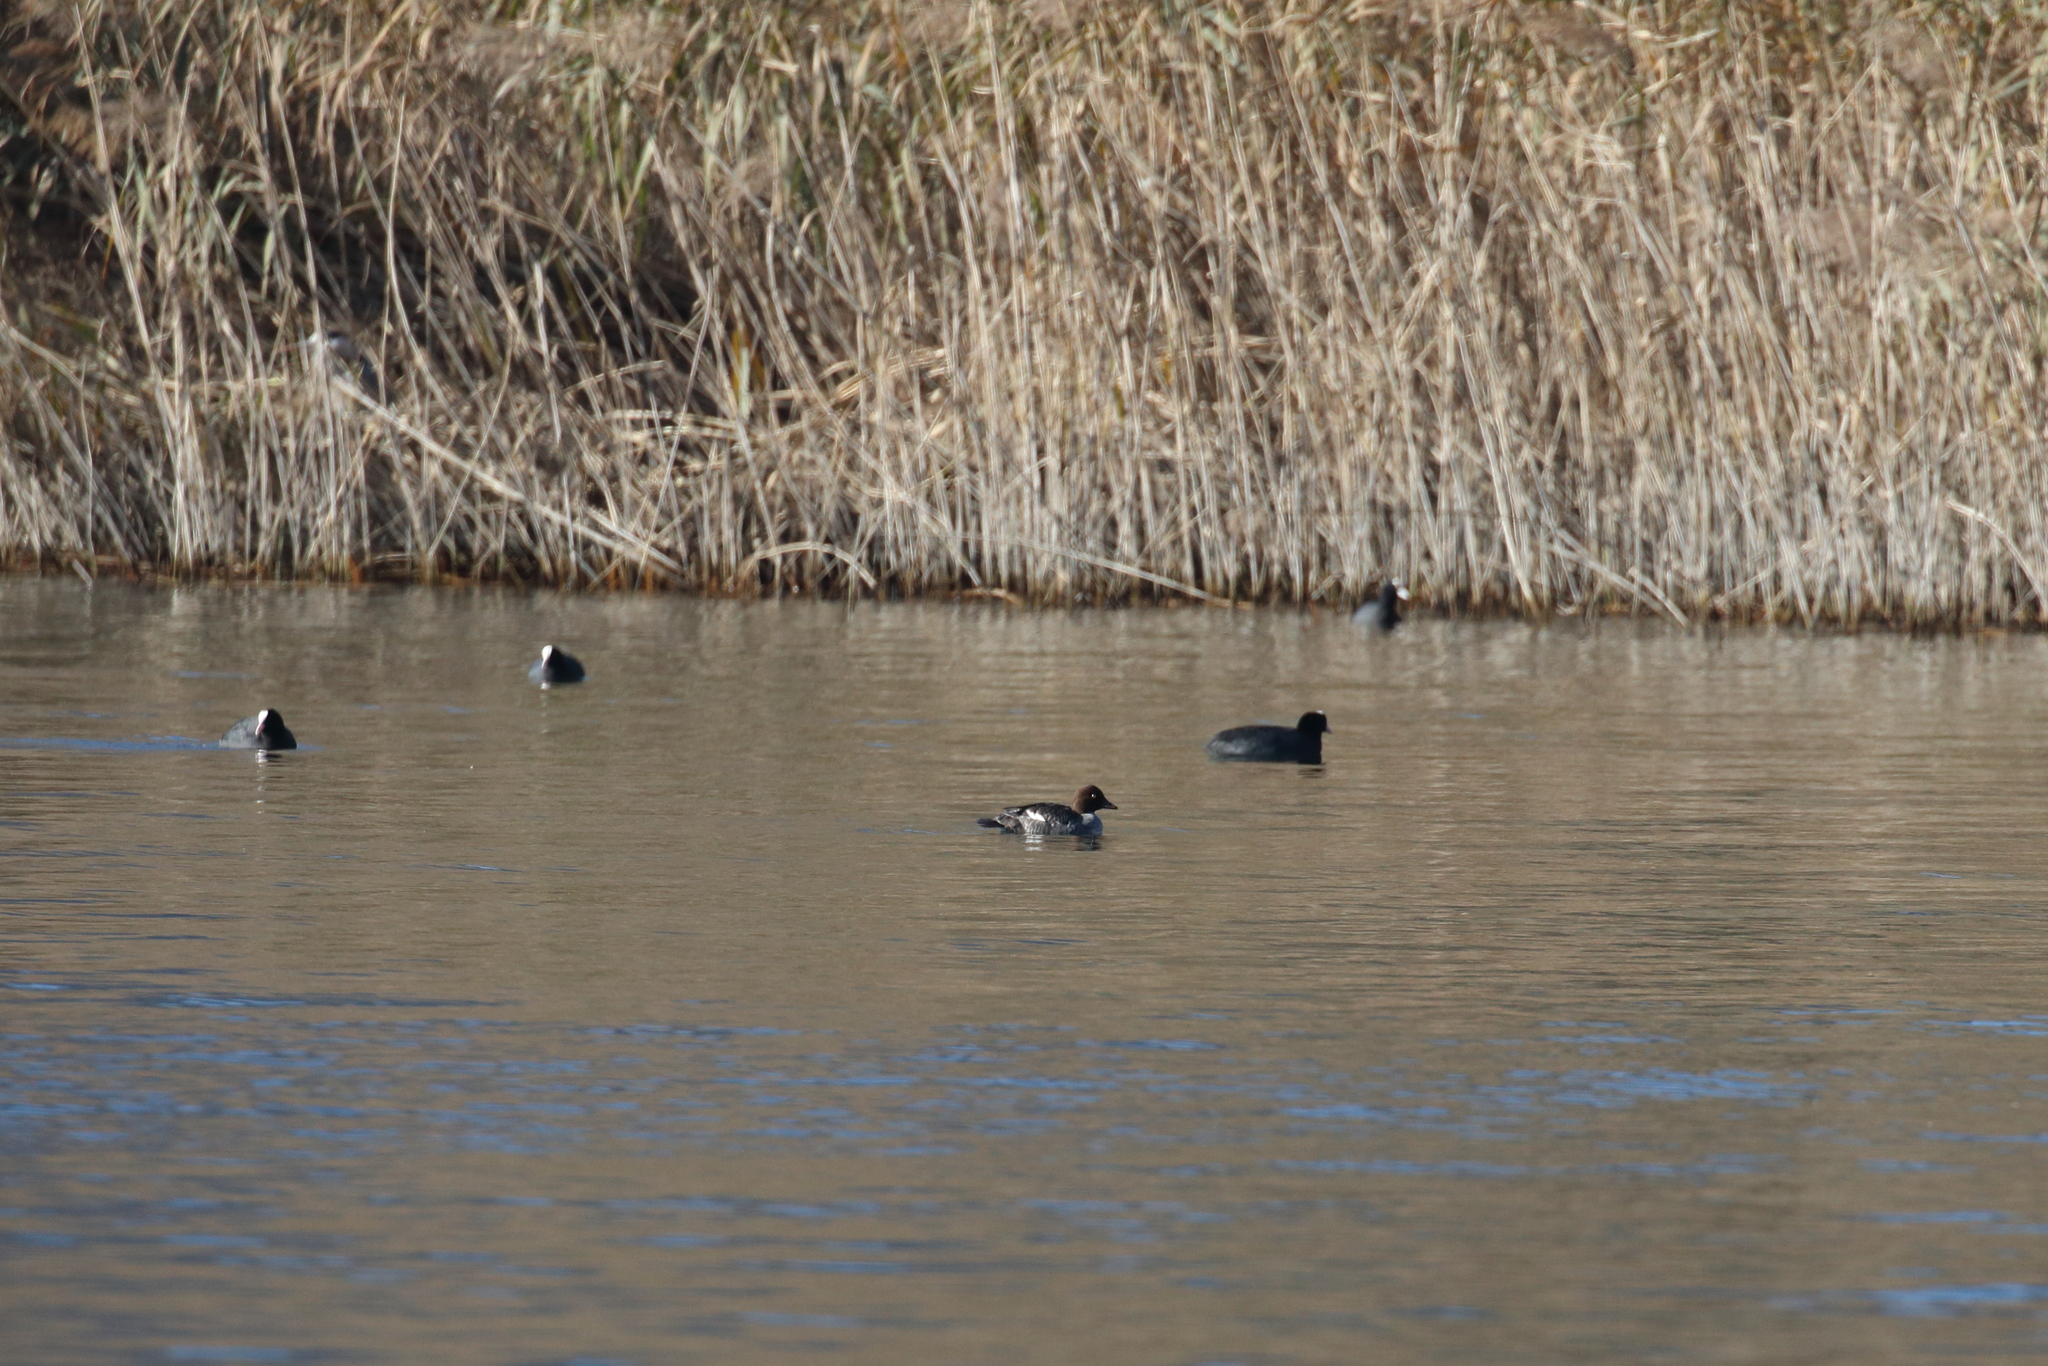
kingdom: Animalia
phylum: Chordata
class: Aves
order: Anseriformes
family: Anatidae
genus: Bucephala
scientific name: Bucephala clangula
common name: Common goldeneye
